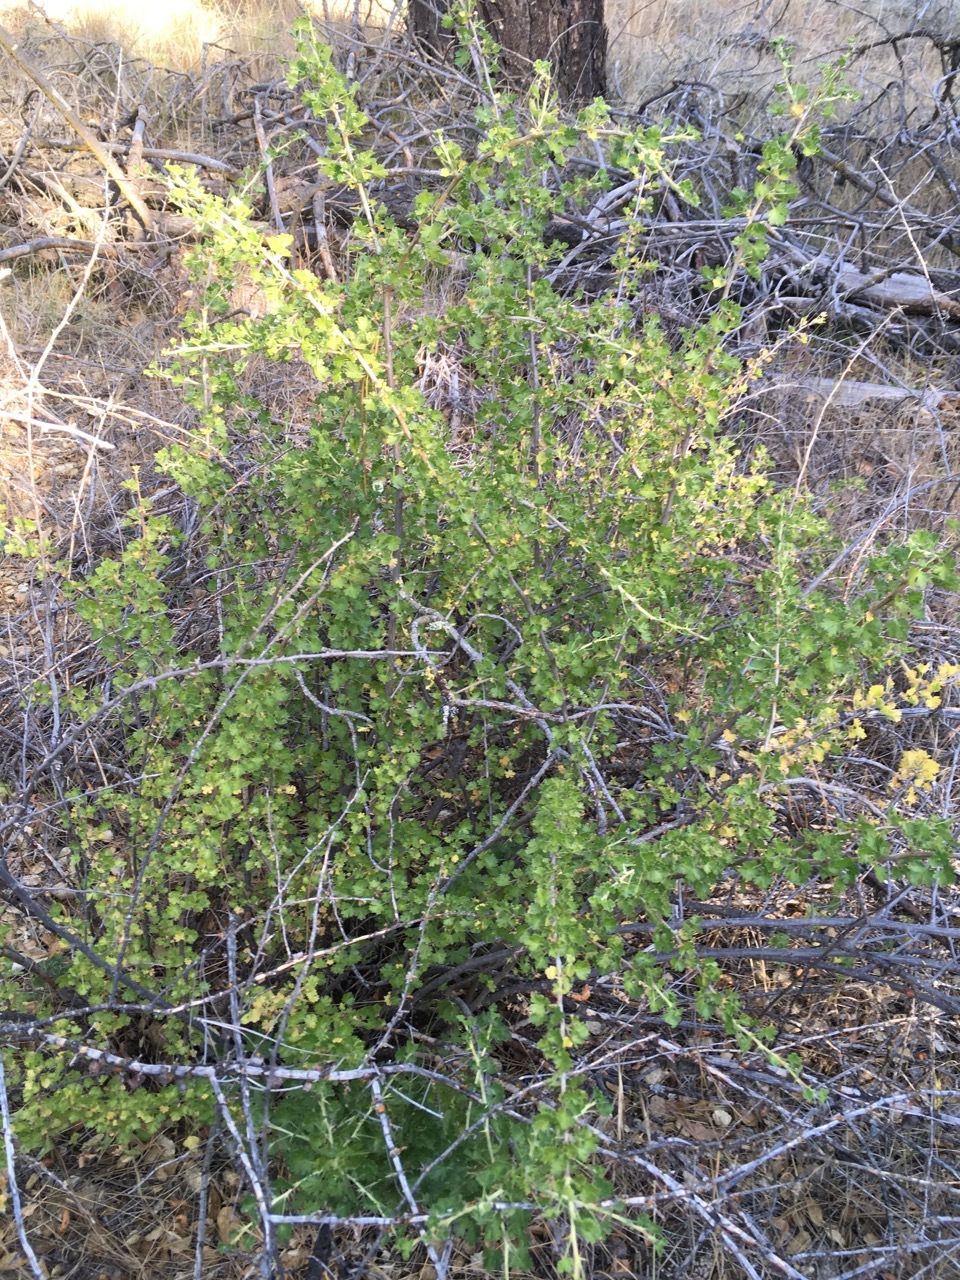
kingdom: Plantae
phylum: Tracheophyta
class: Magnoliopsida
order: Saxifragales
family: Grossulariaceae
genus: Ribes
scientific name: Ribes quercetorum
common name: Oak gooseberry
